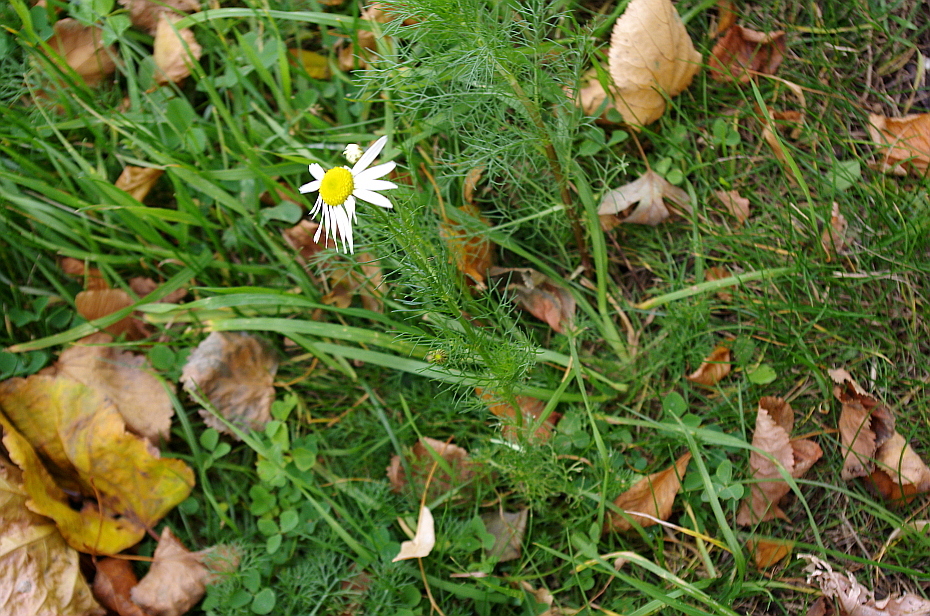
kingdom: Plantae
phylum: Tracheophyta
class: Magnoliopsida
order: Asterales
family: Asteraceae
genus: Tripleurospermum
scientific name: Tripleurospermum inodorum
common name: Scentless mayweed
